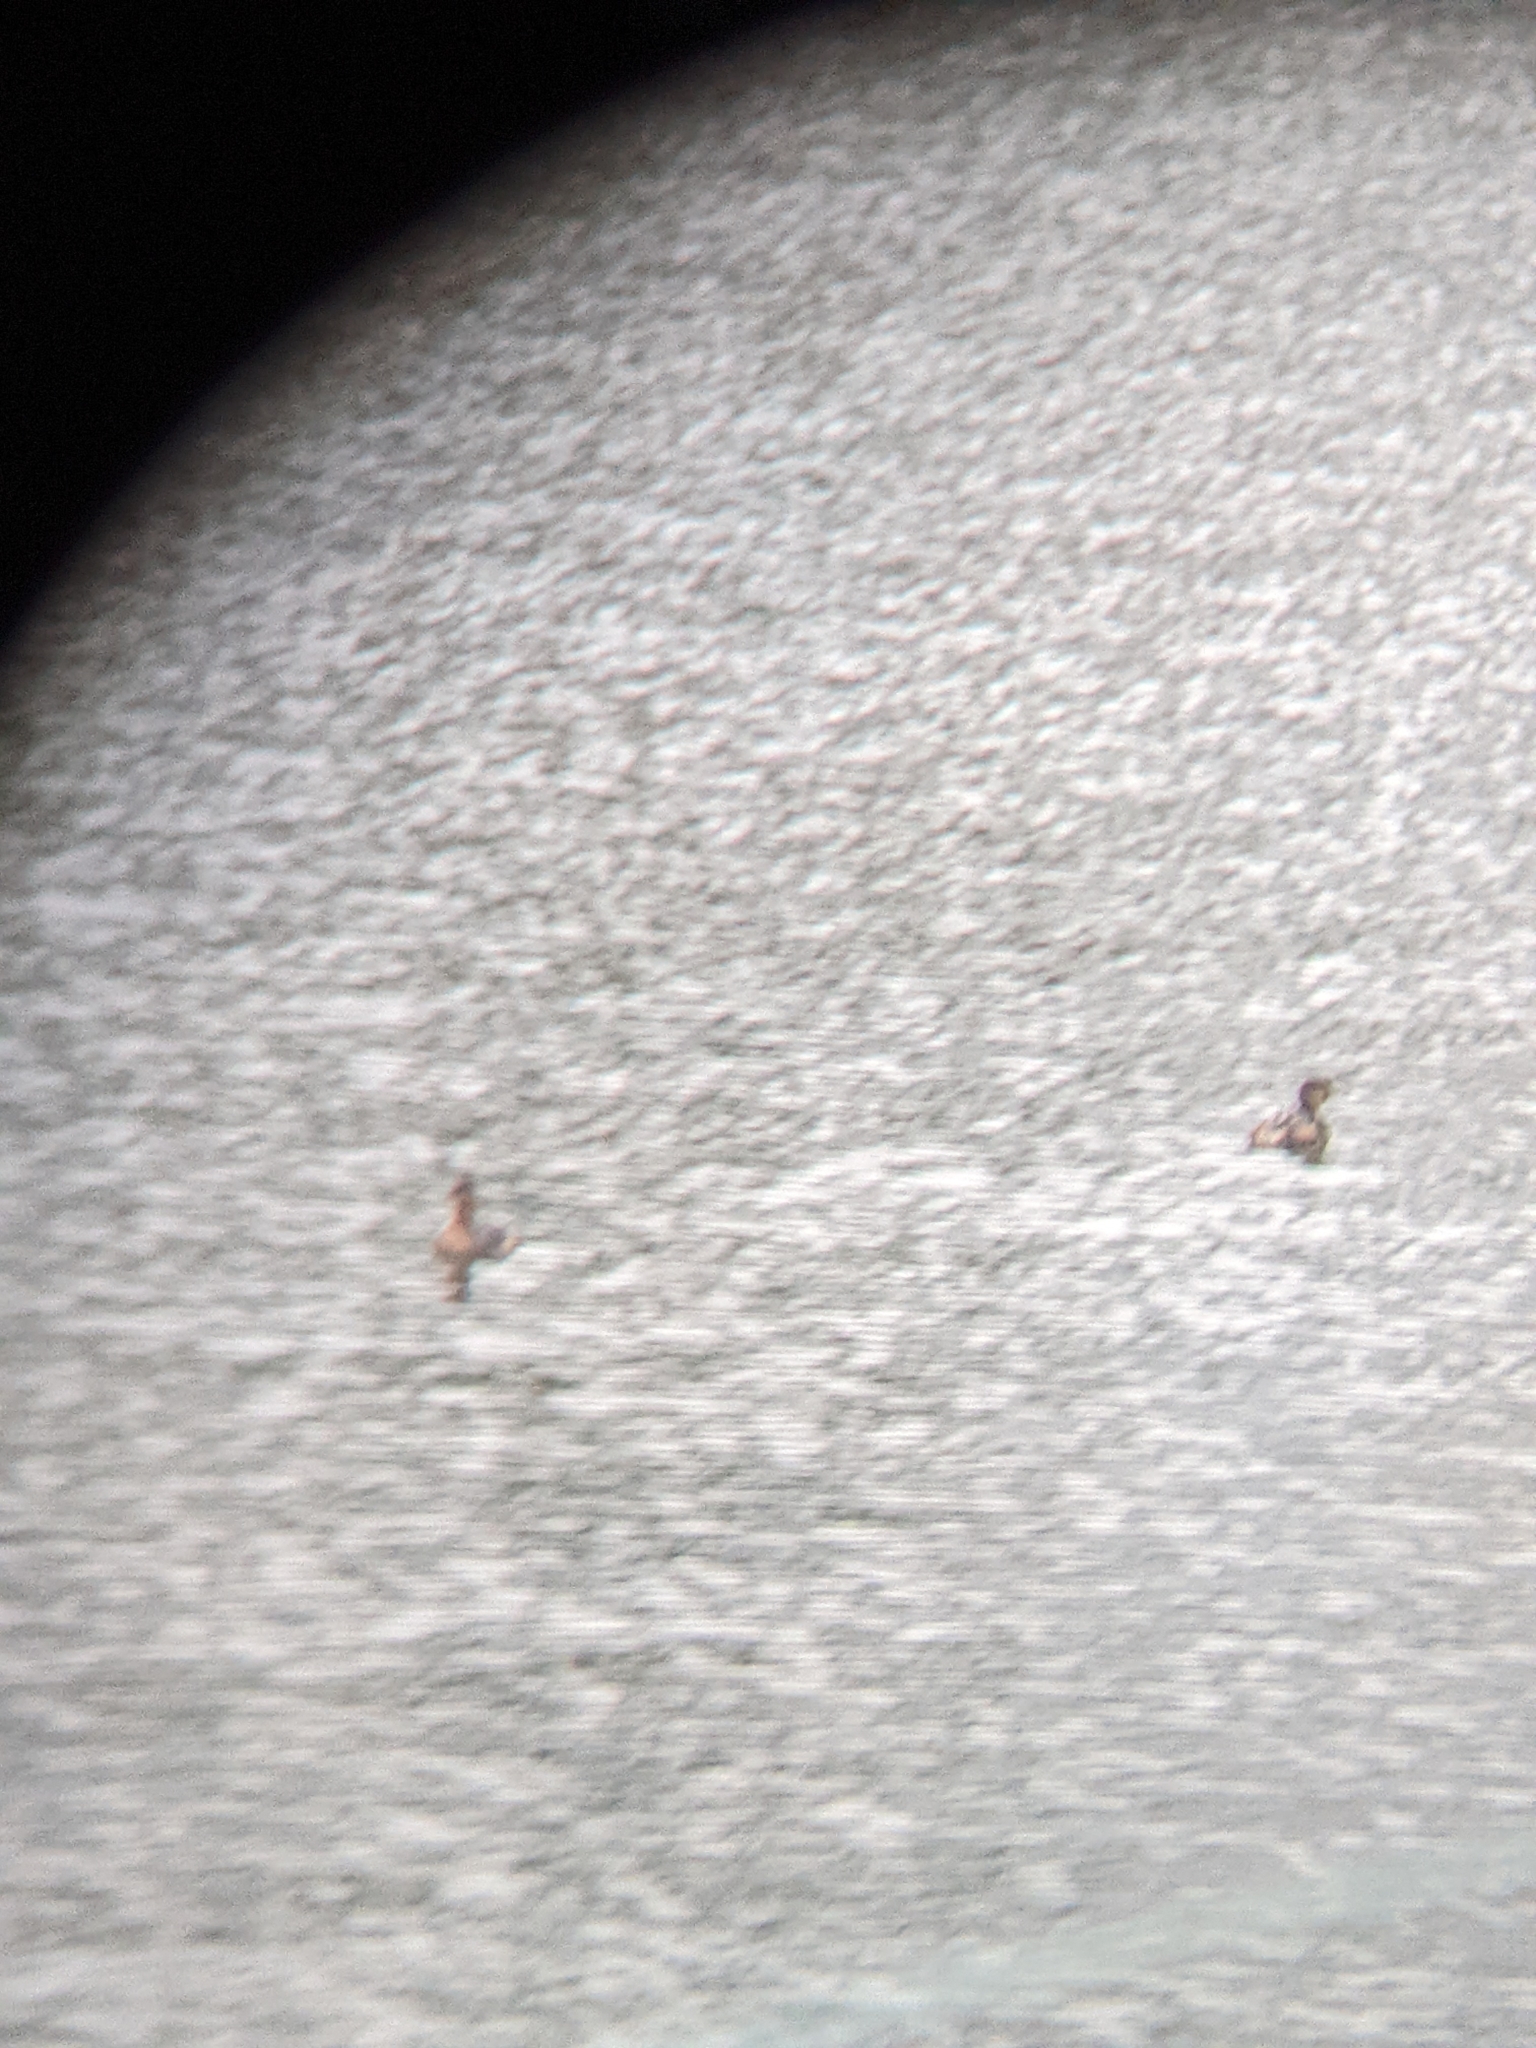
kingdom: Animalia
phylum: Chordata
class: Aves
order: Podicipediformes
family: Podicipedidae
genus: Podilymbus
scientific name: Podilymbus podiceps
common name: Pied-billed grebe
